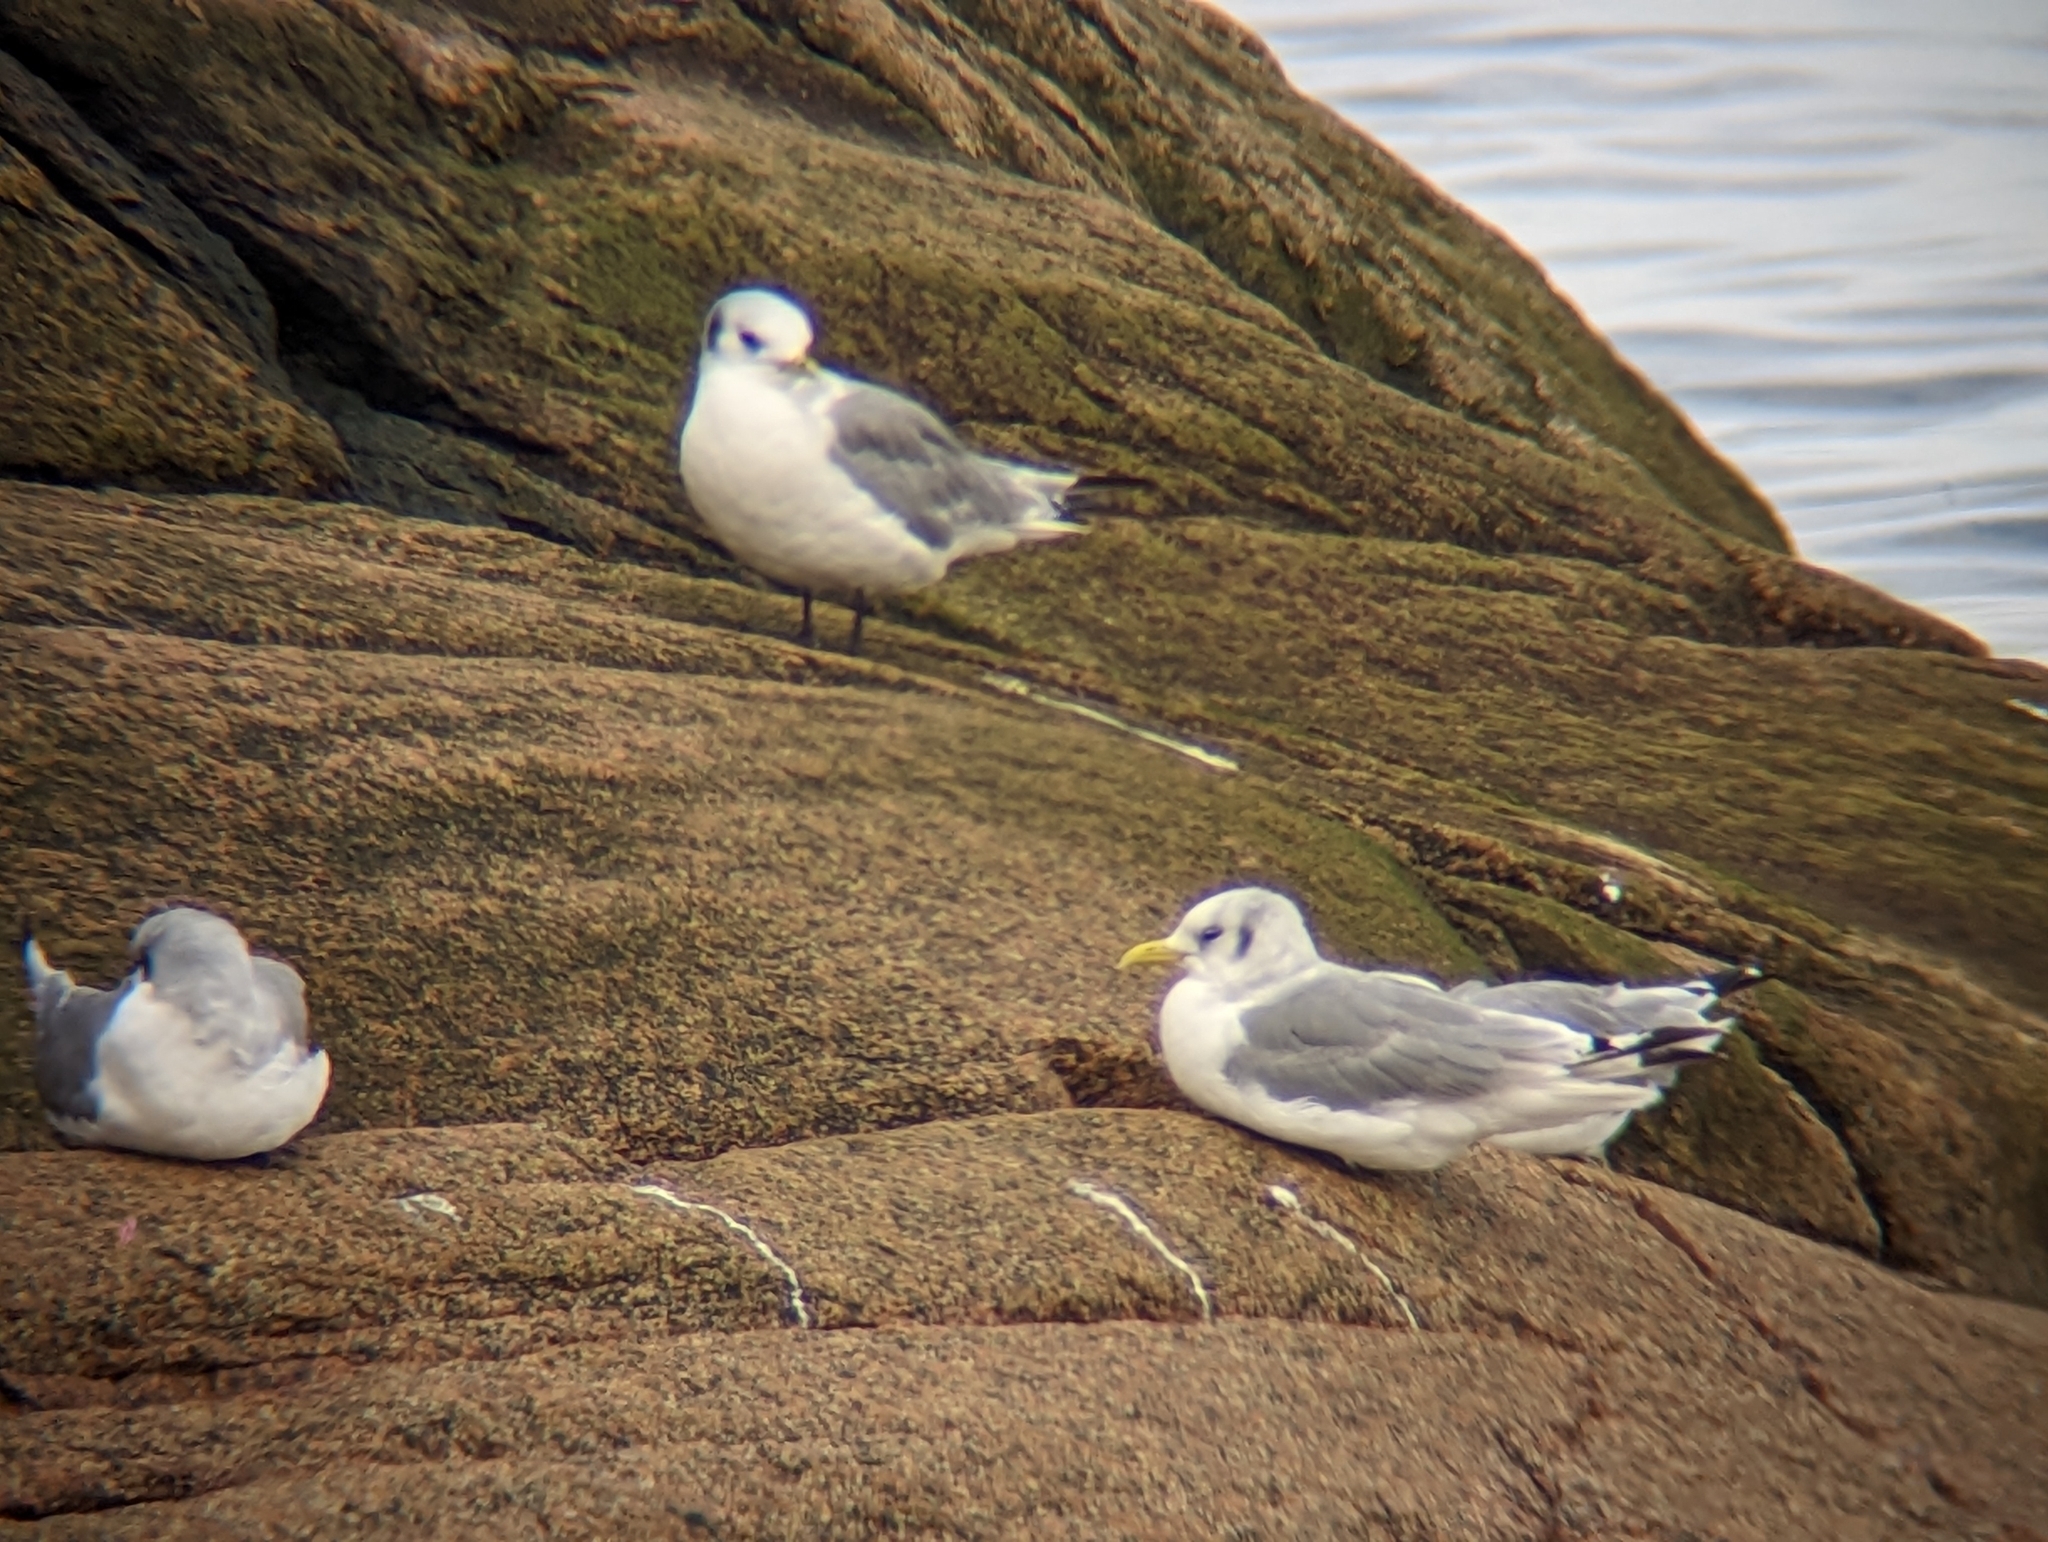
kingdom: Animalia
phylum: Chordata
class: Aves
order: Charadriiformes
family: Laridae
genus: Rissa
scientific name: Rissa tridactyla
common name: Black-legged kittiwake
